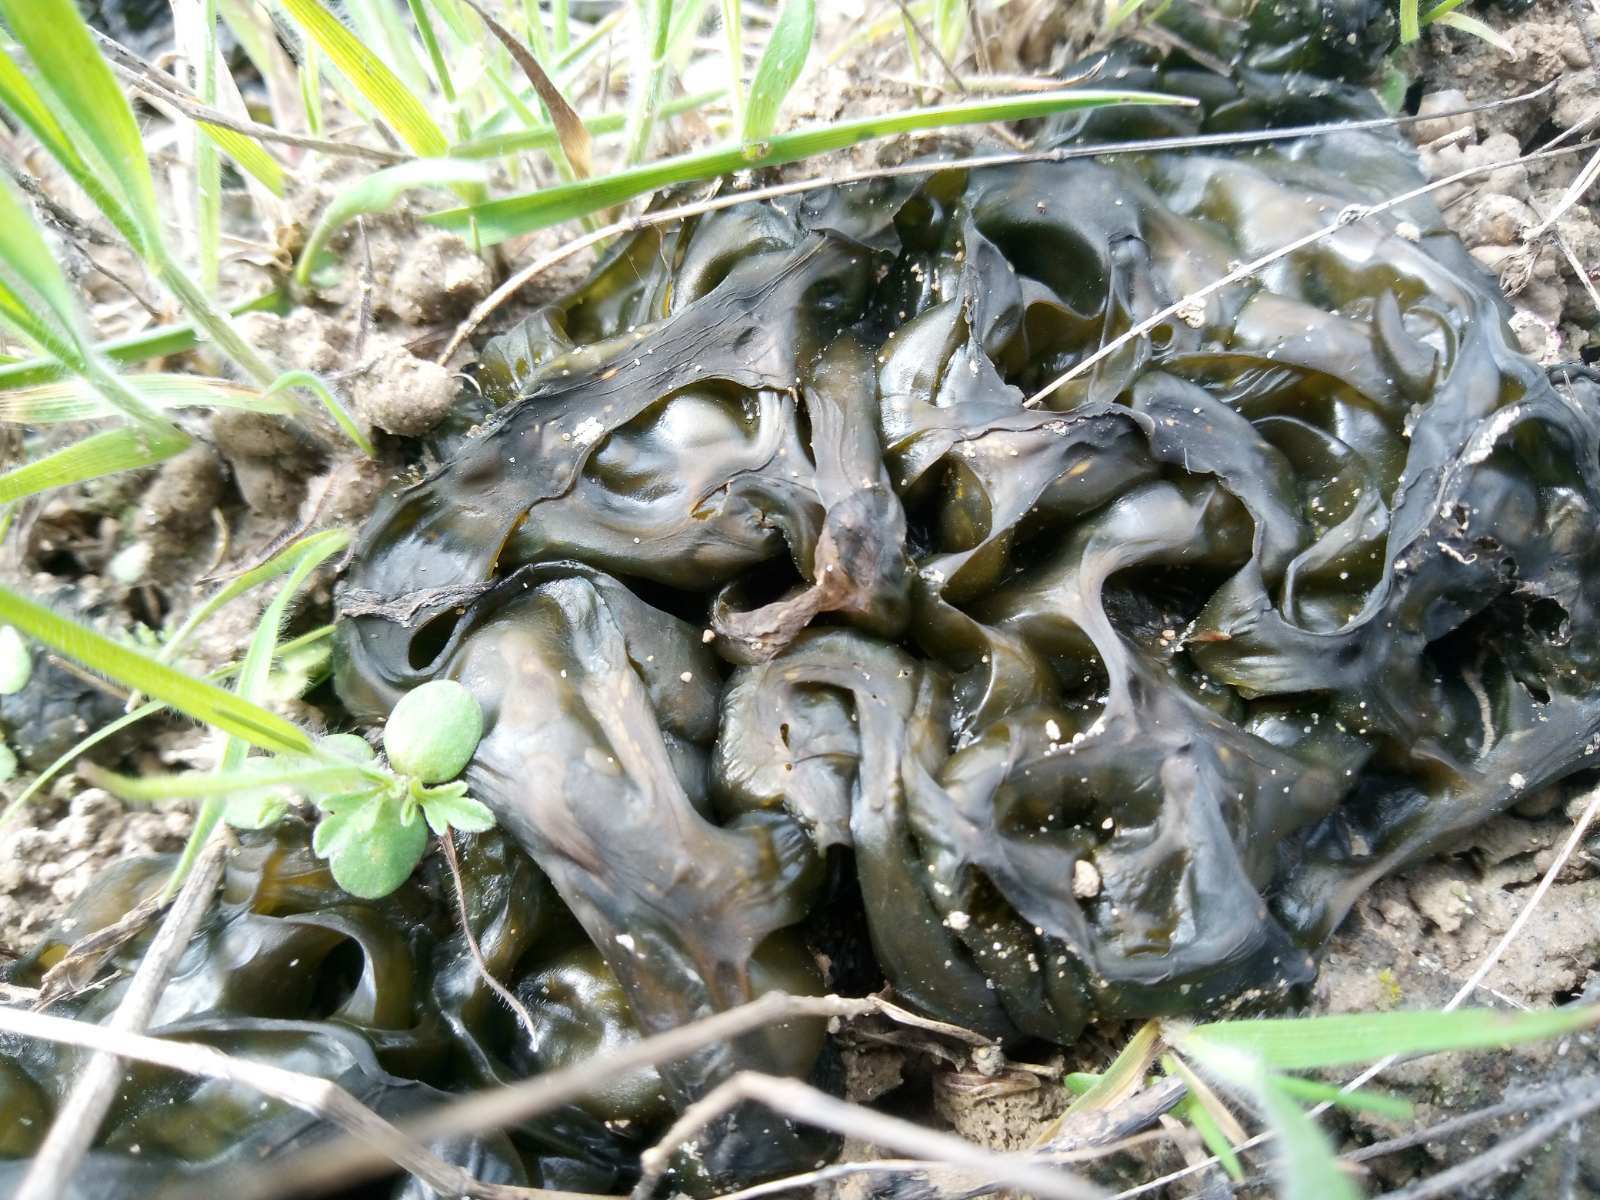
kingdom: Bacteria
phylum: Cyanobacteria
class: Cyanobacteriia
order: Cyanobacteriales
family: Nostocaceae
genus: Nostoc
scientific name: Nostoc commune
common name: Star jelly
